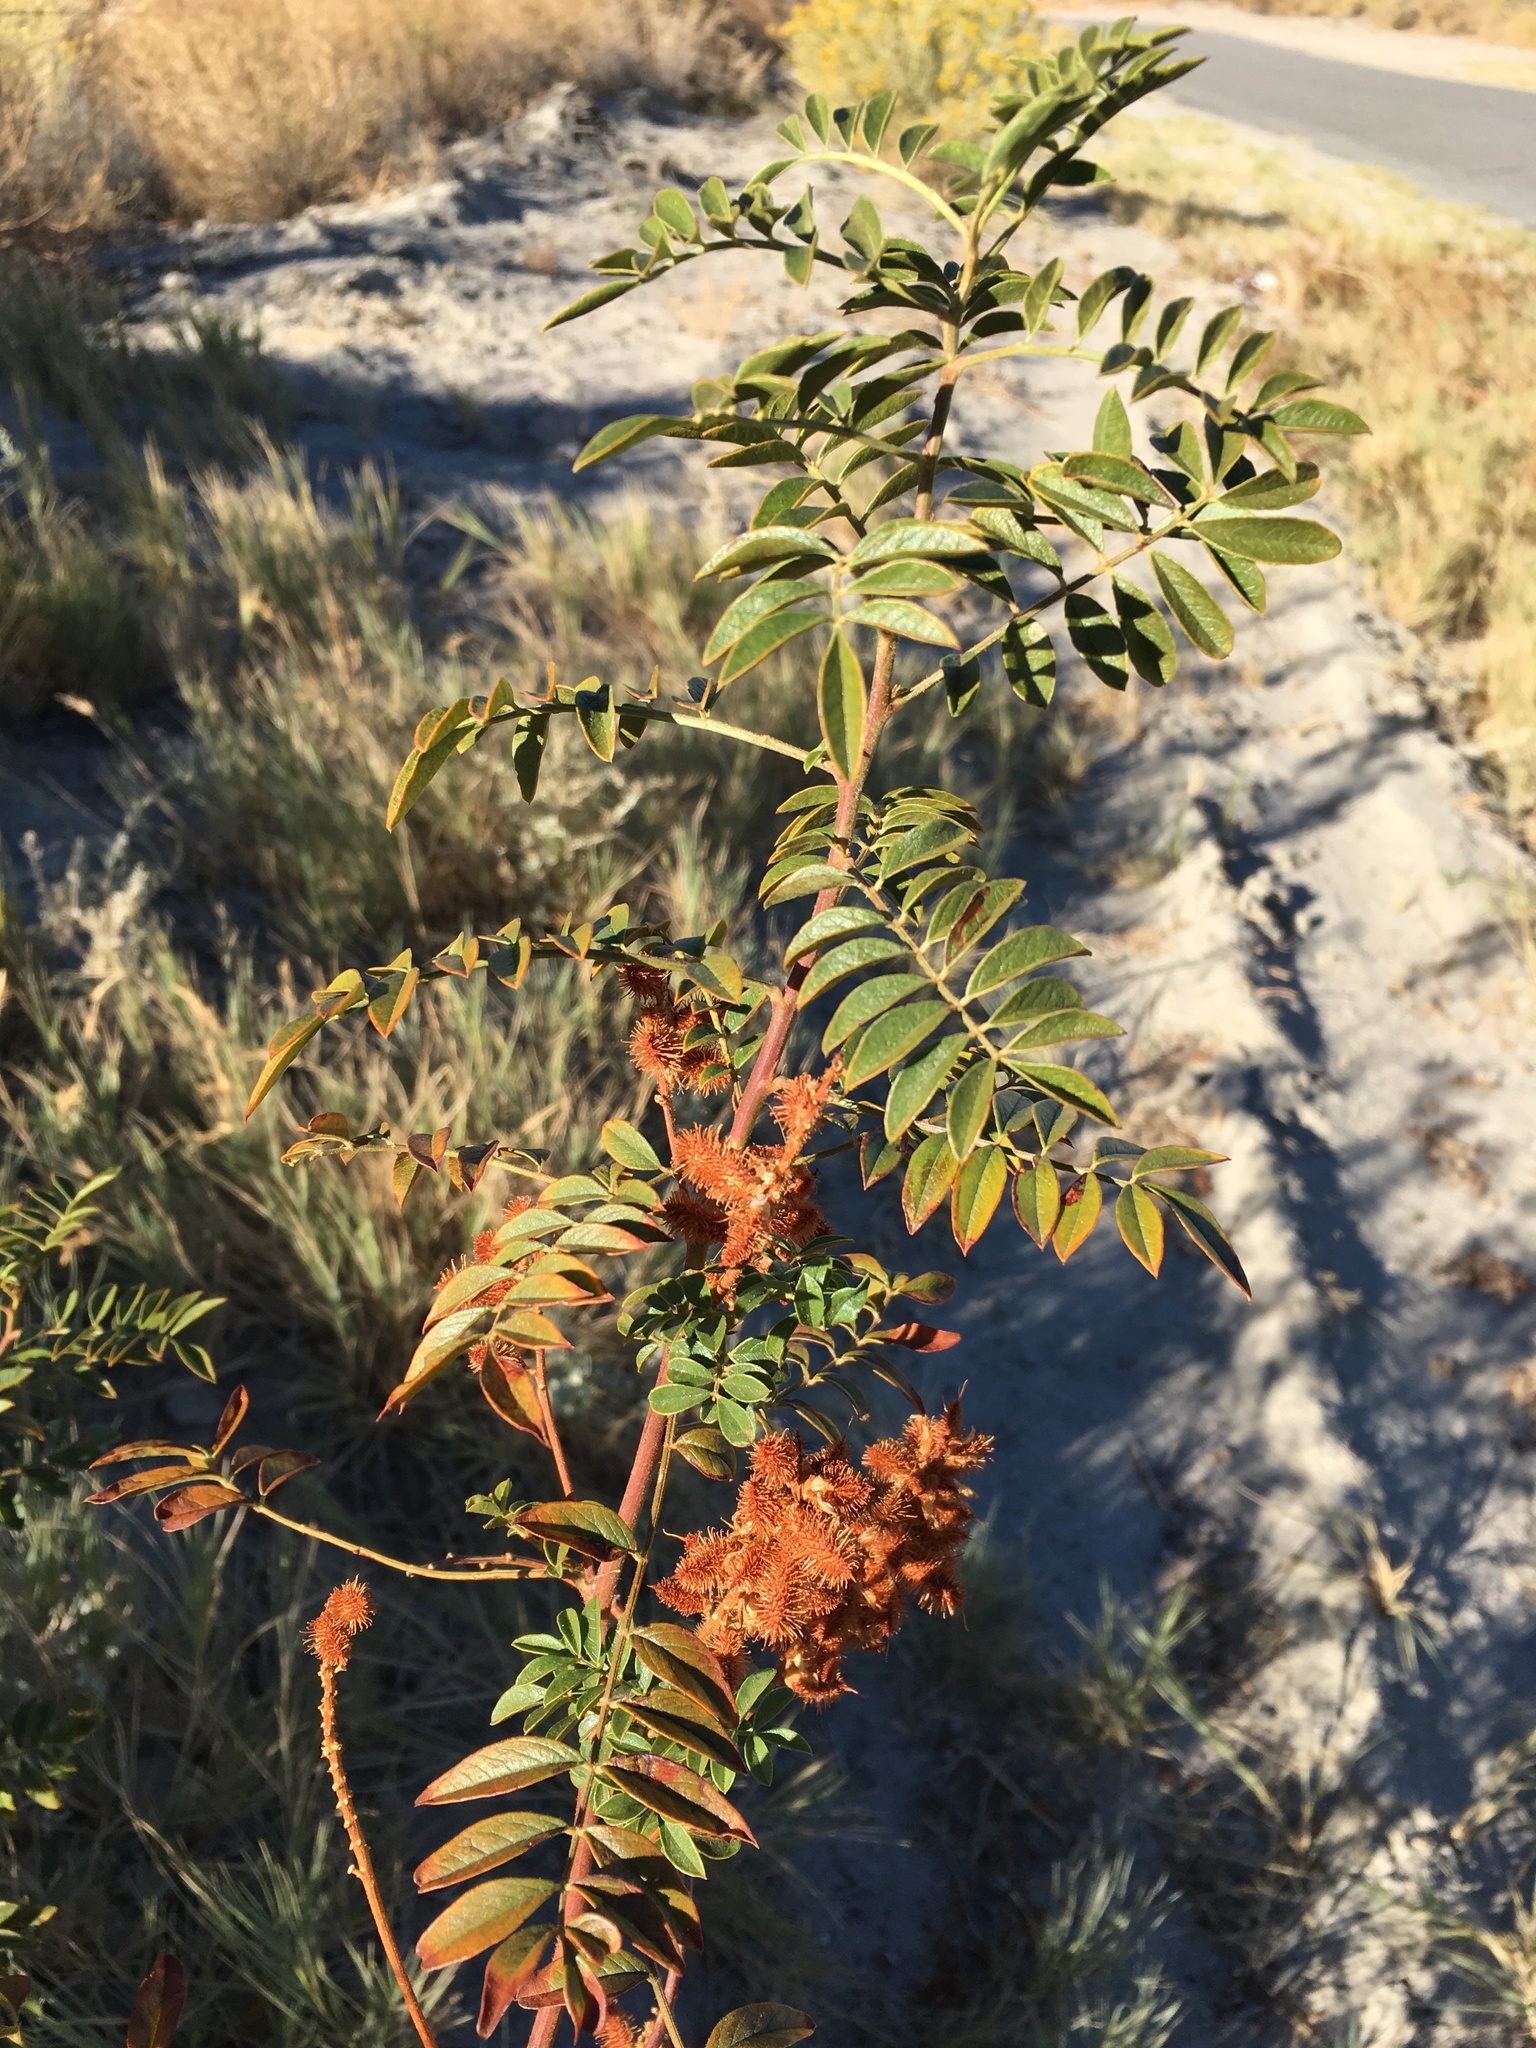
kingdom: Plantae
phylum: Tracheophyta
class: Magnoliopsida
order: Fabales
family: Fabaceae
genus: Glycyrrhiza
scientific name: Glycyrrhiza lepidota
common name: American liquorice
